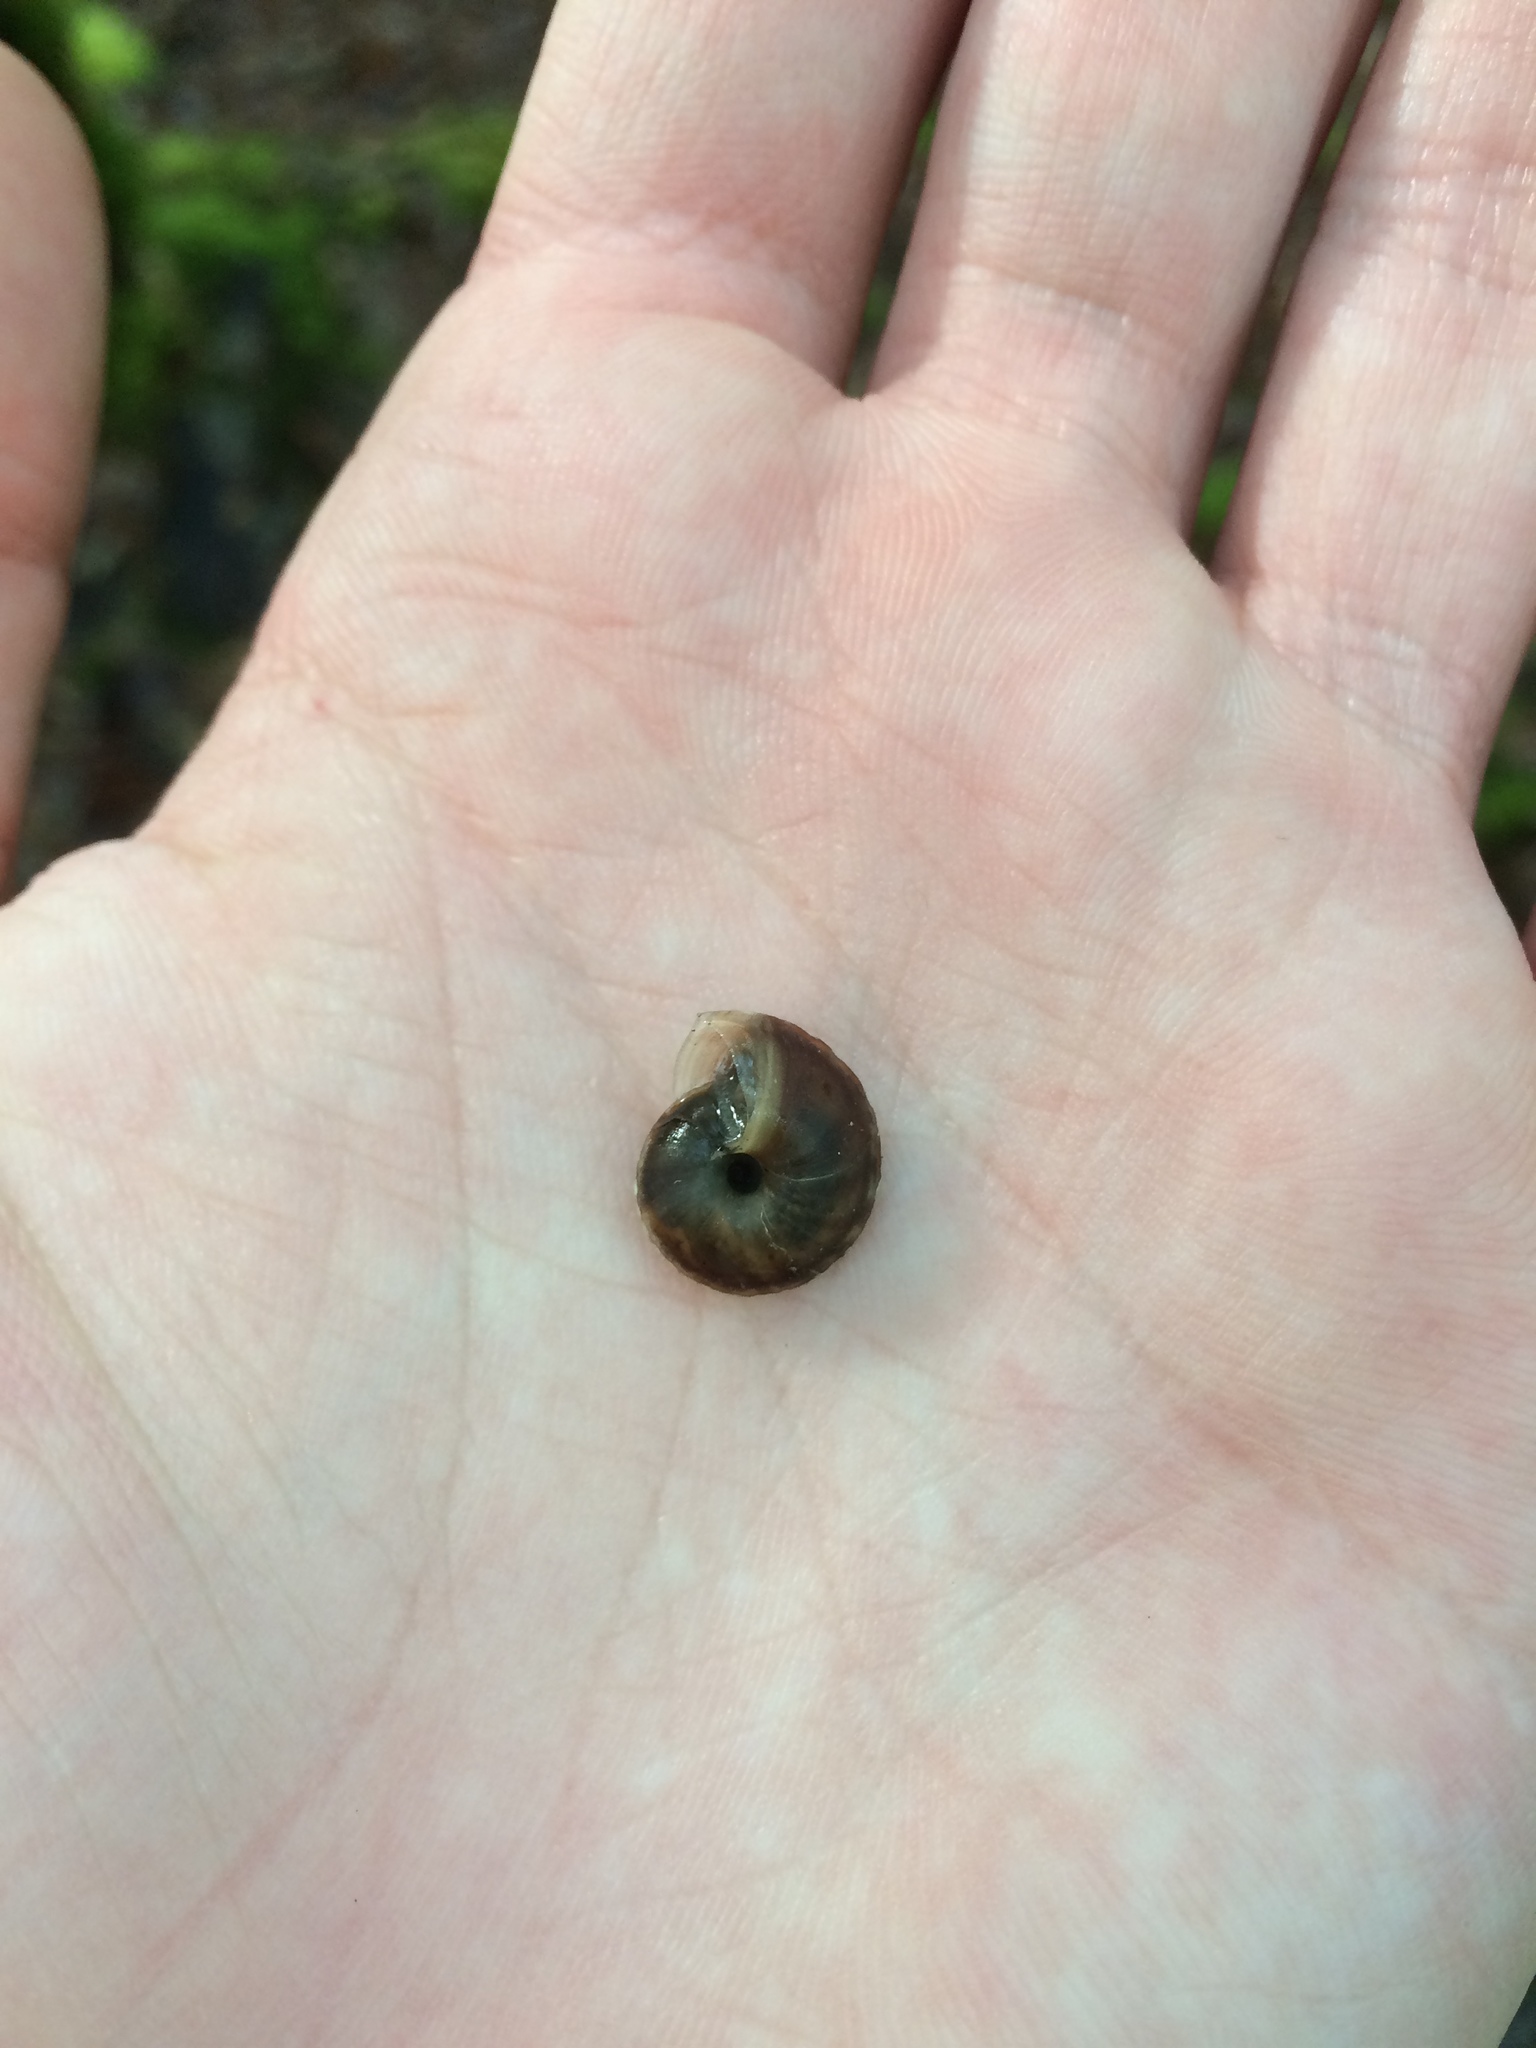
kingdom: Animalia
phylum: Mollusca
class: Gastropoda
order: Stylommatophora
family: Helicidae
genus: Helicigona
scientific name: Helicigona lapicida
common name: Lapidary snail
